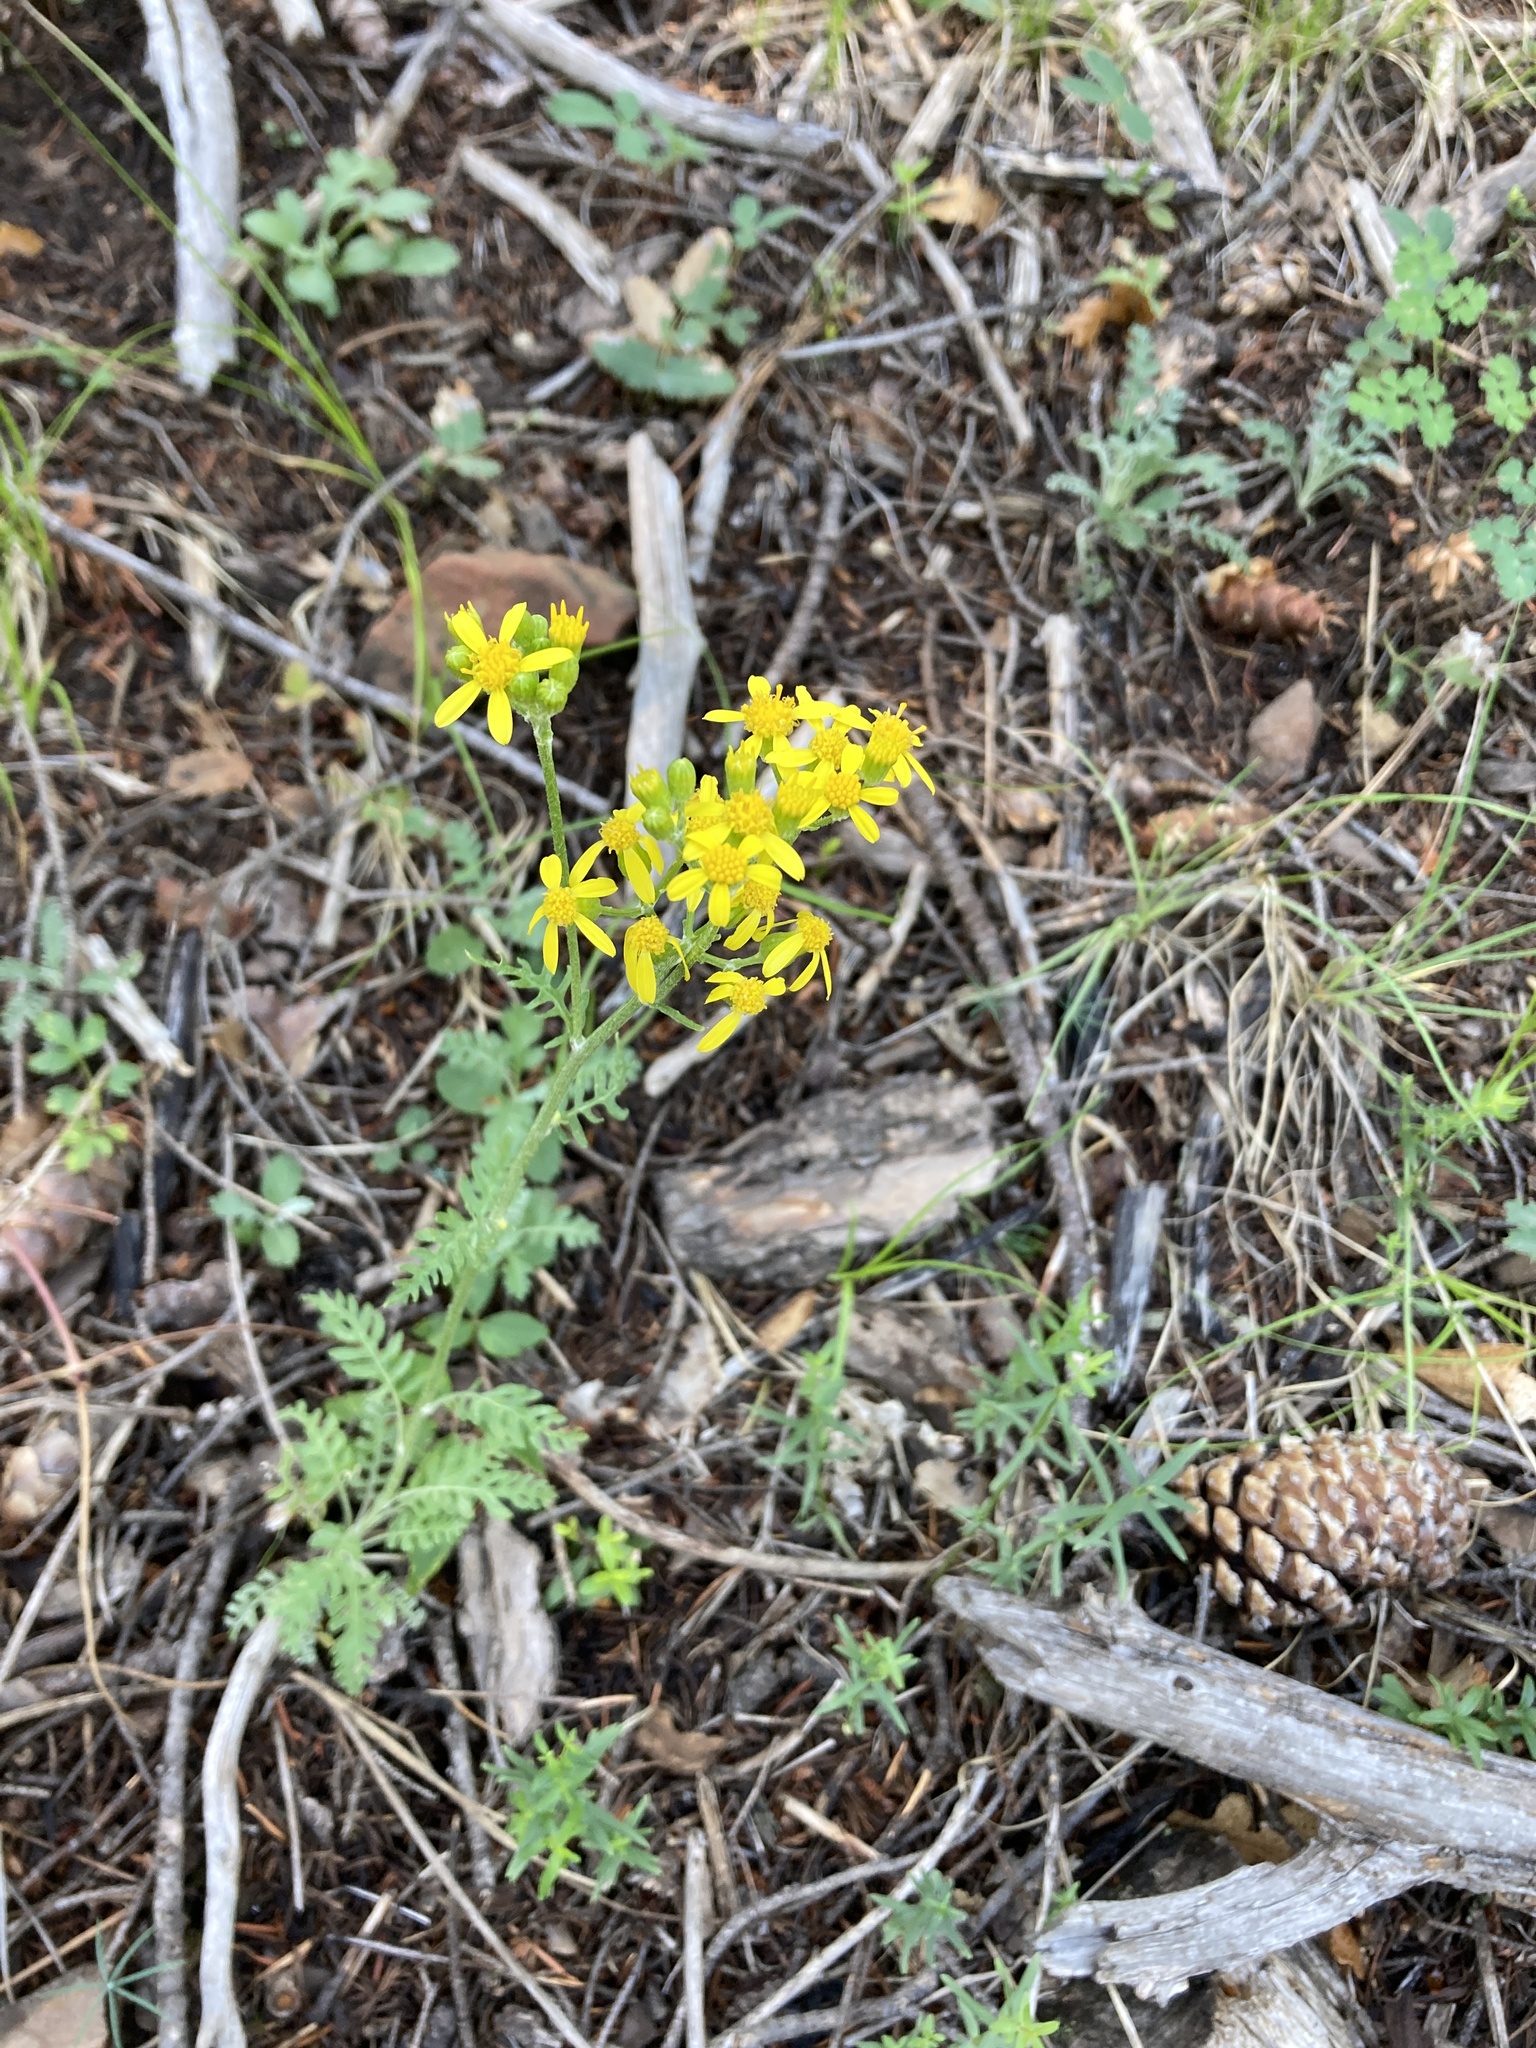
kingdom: Plantae
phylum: Tracheophyta
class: Magnoliopsida
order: Asterales
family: Asteraceae
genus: Packera
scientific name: Packera fendleri
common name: Notch-leaf butterweed
